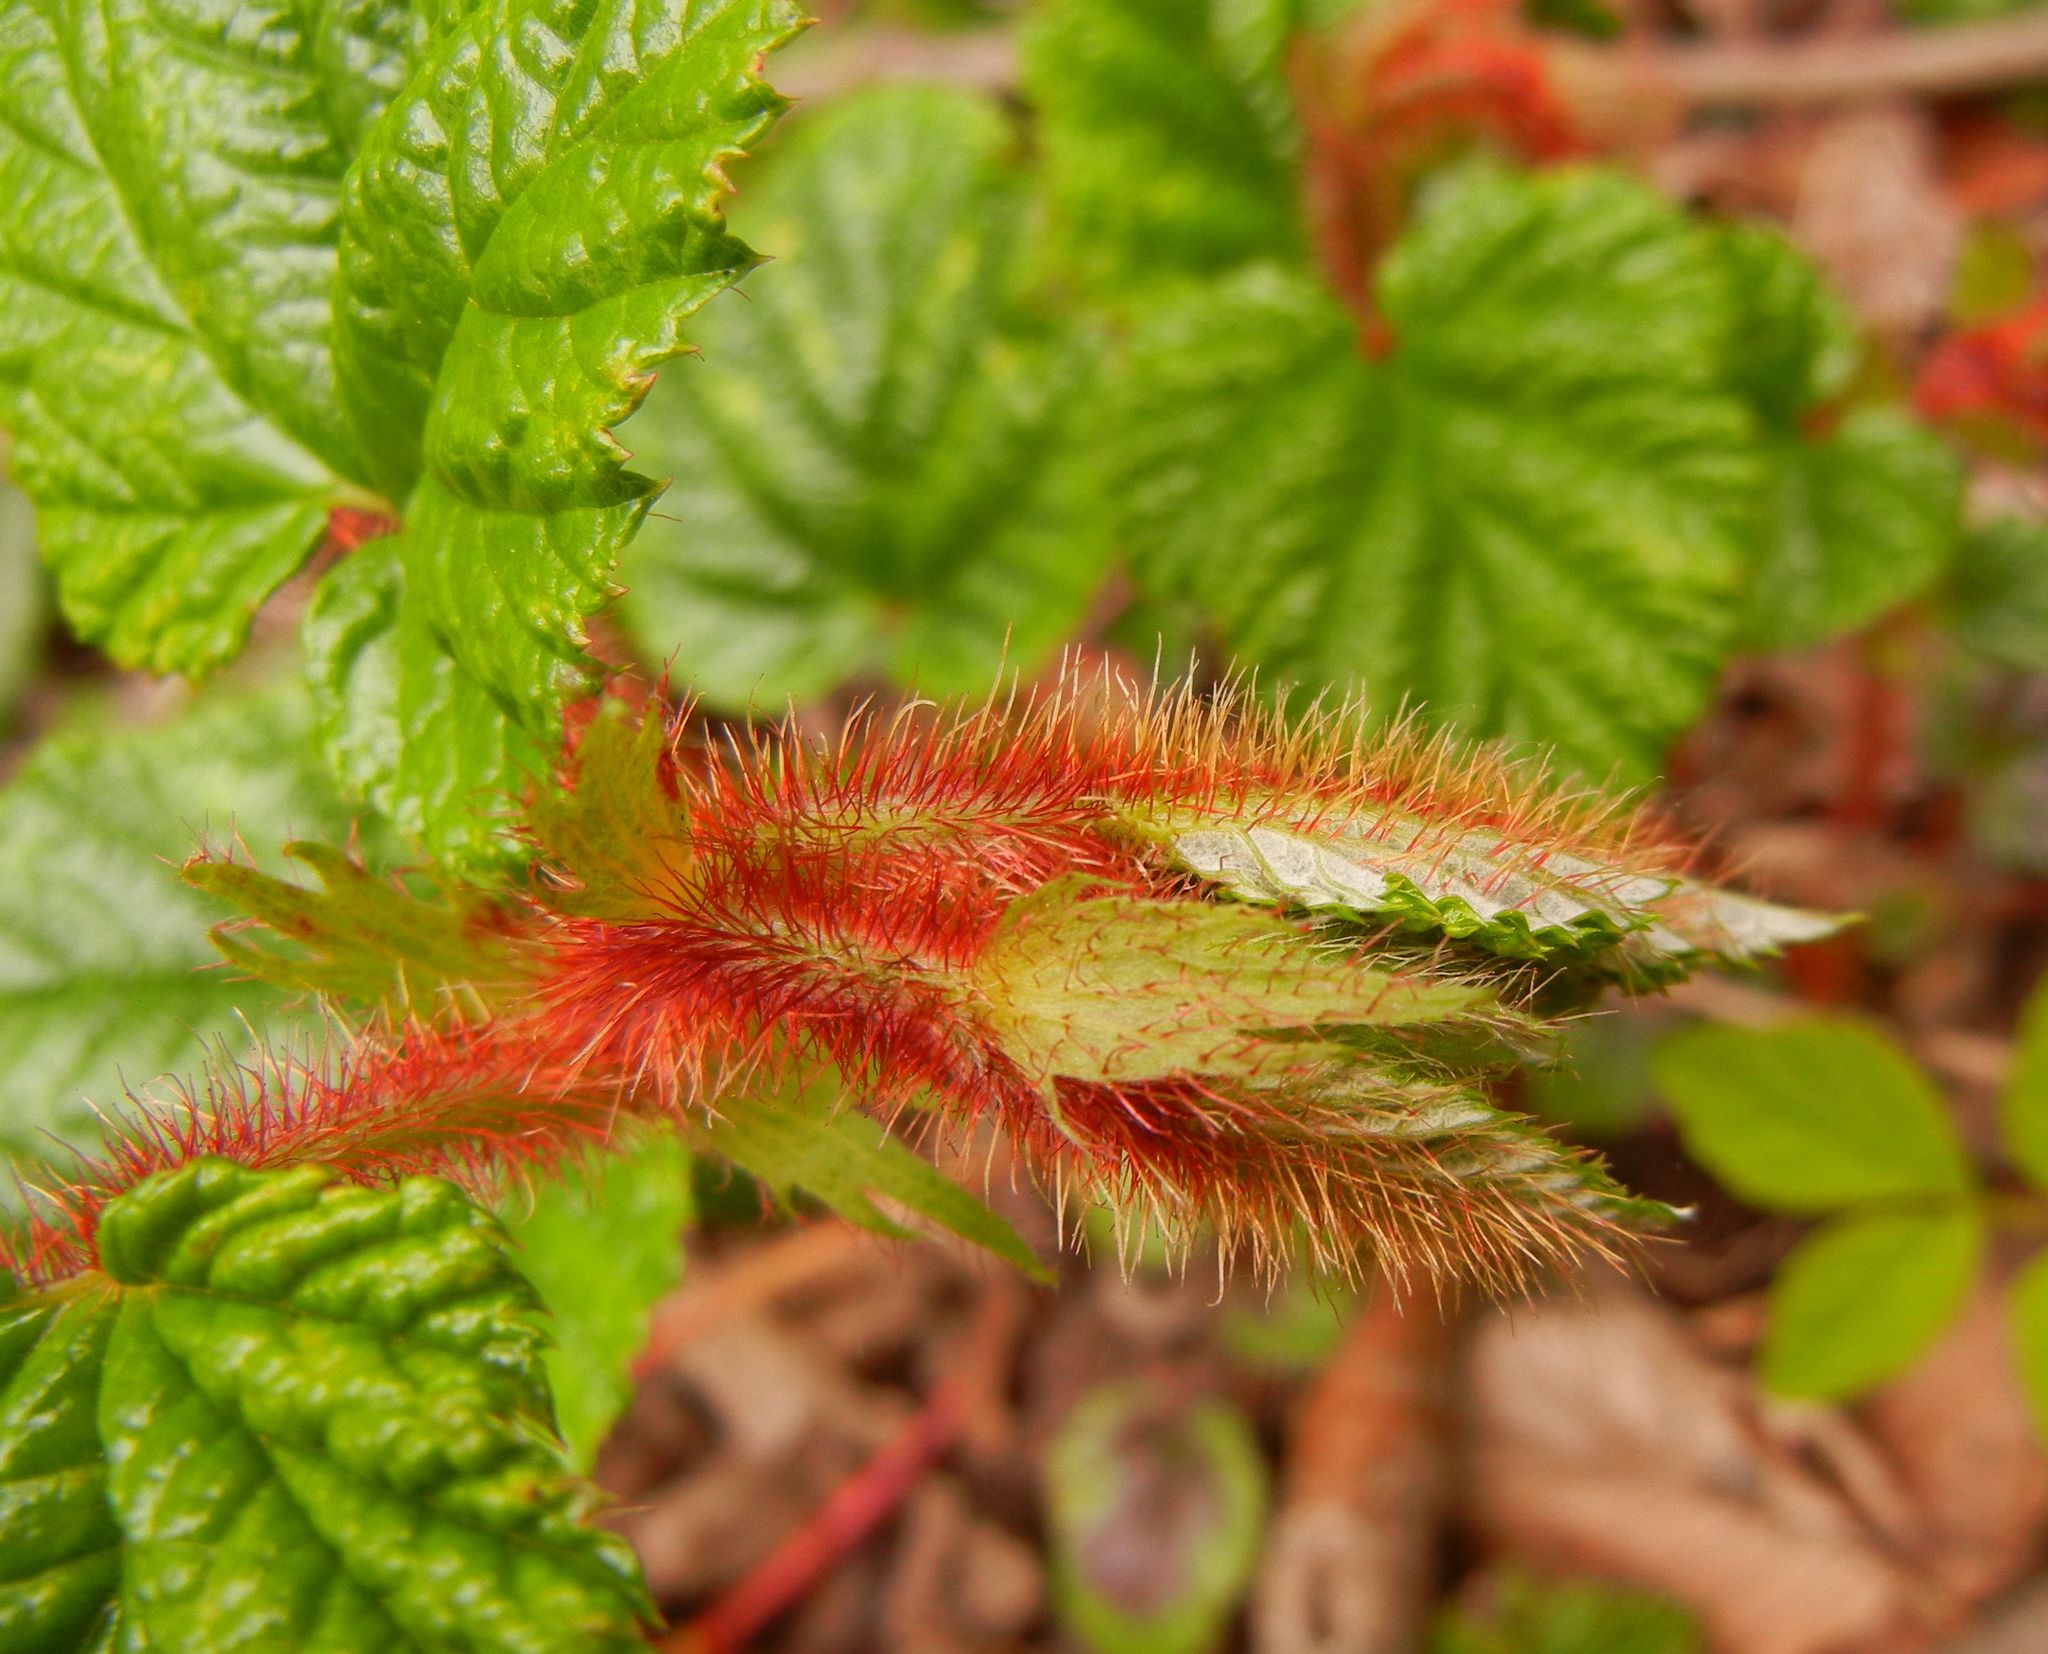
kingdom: Plantae
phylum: Tracheophyta
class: Magnoliopsida
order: Rosales
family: Rosaceae
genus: Rubus
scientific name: Rubus tricolor
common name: Chinese bramble
